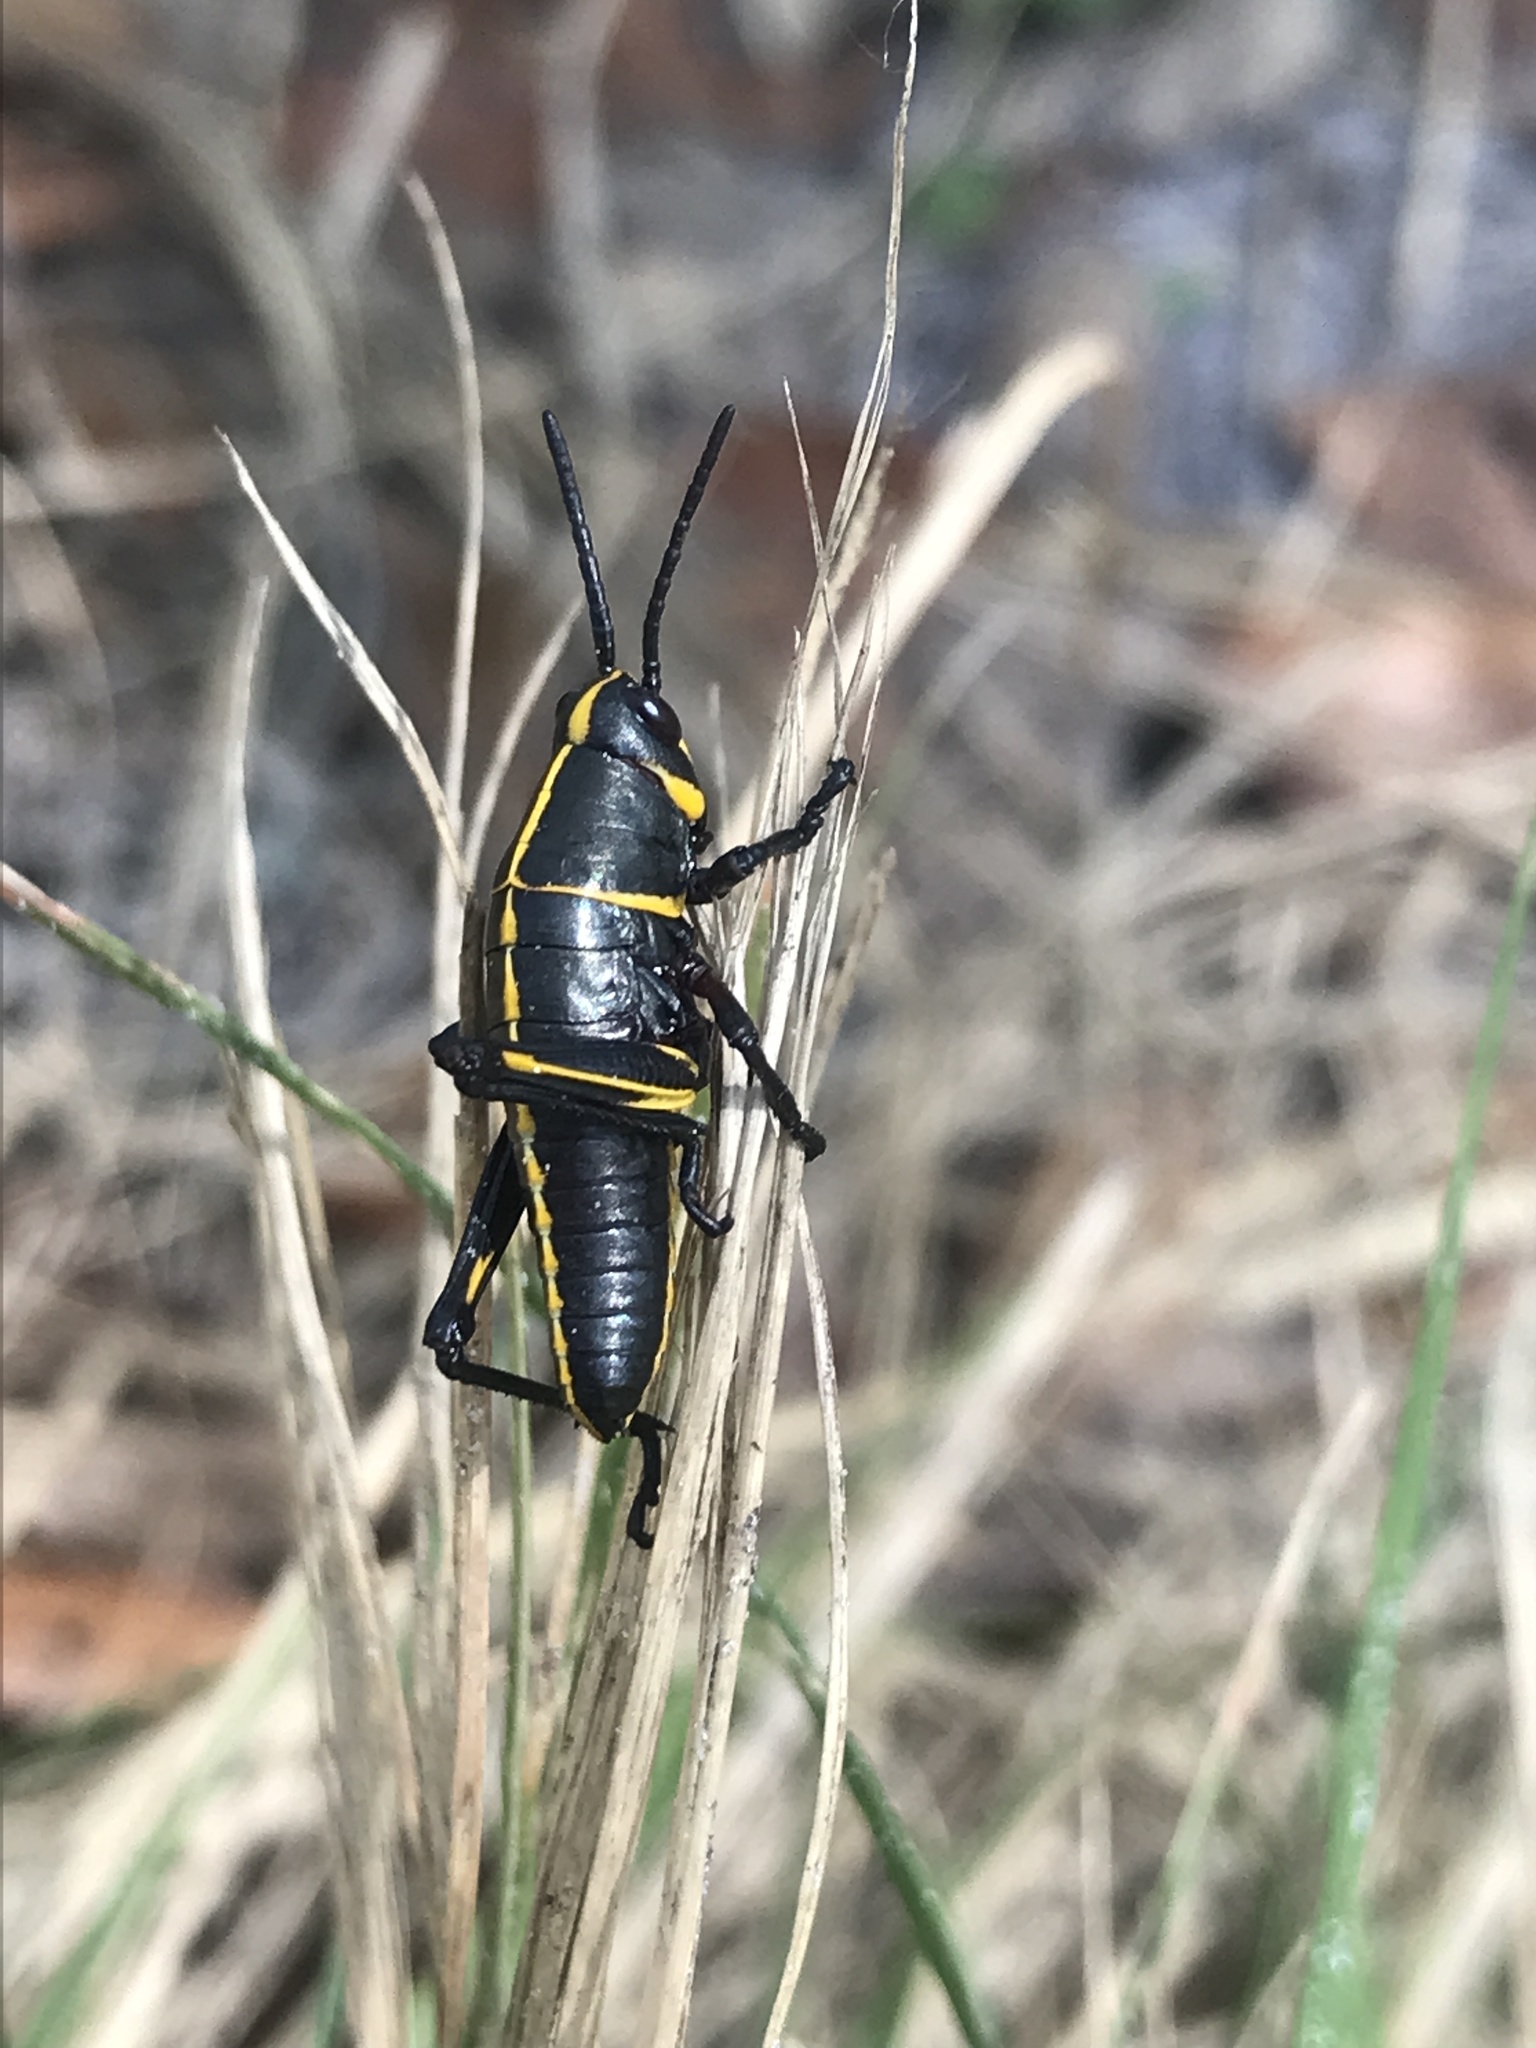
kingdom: Animalia
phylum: Arthropoda
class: Insecta
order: Orthoptera
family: Romaleidae
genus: Romalea
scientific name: Romalea microptera
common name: Eastern lubber grasshopper
